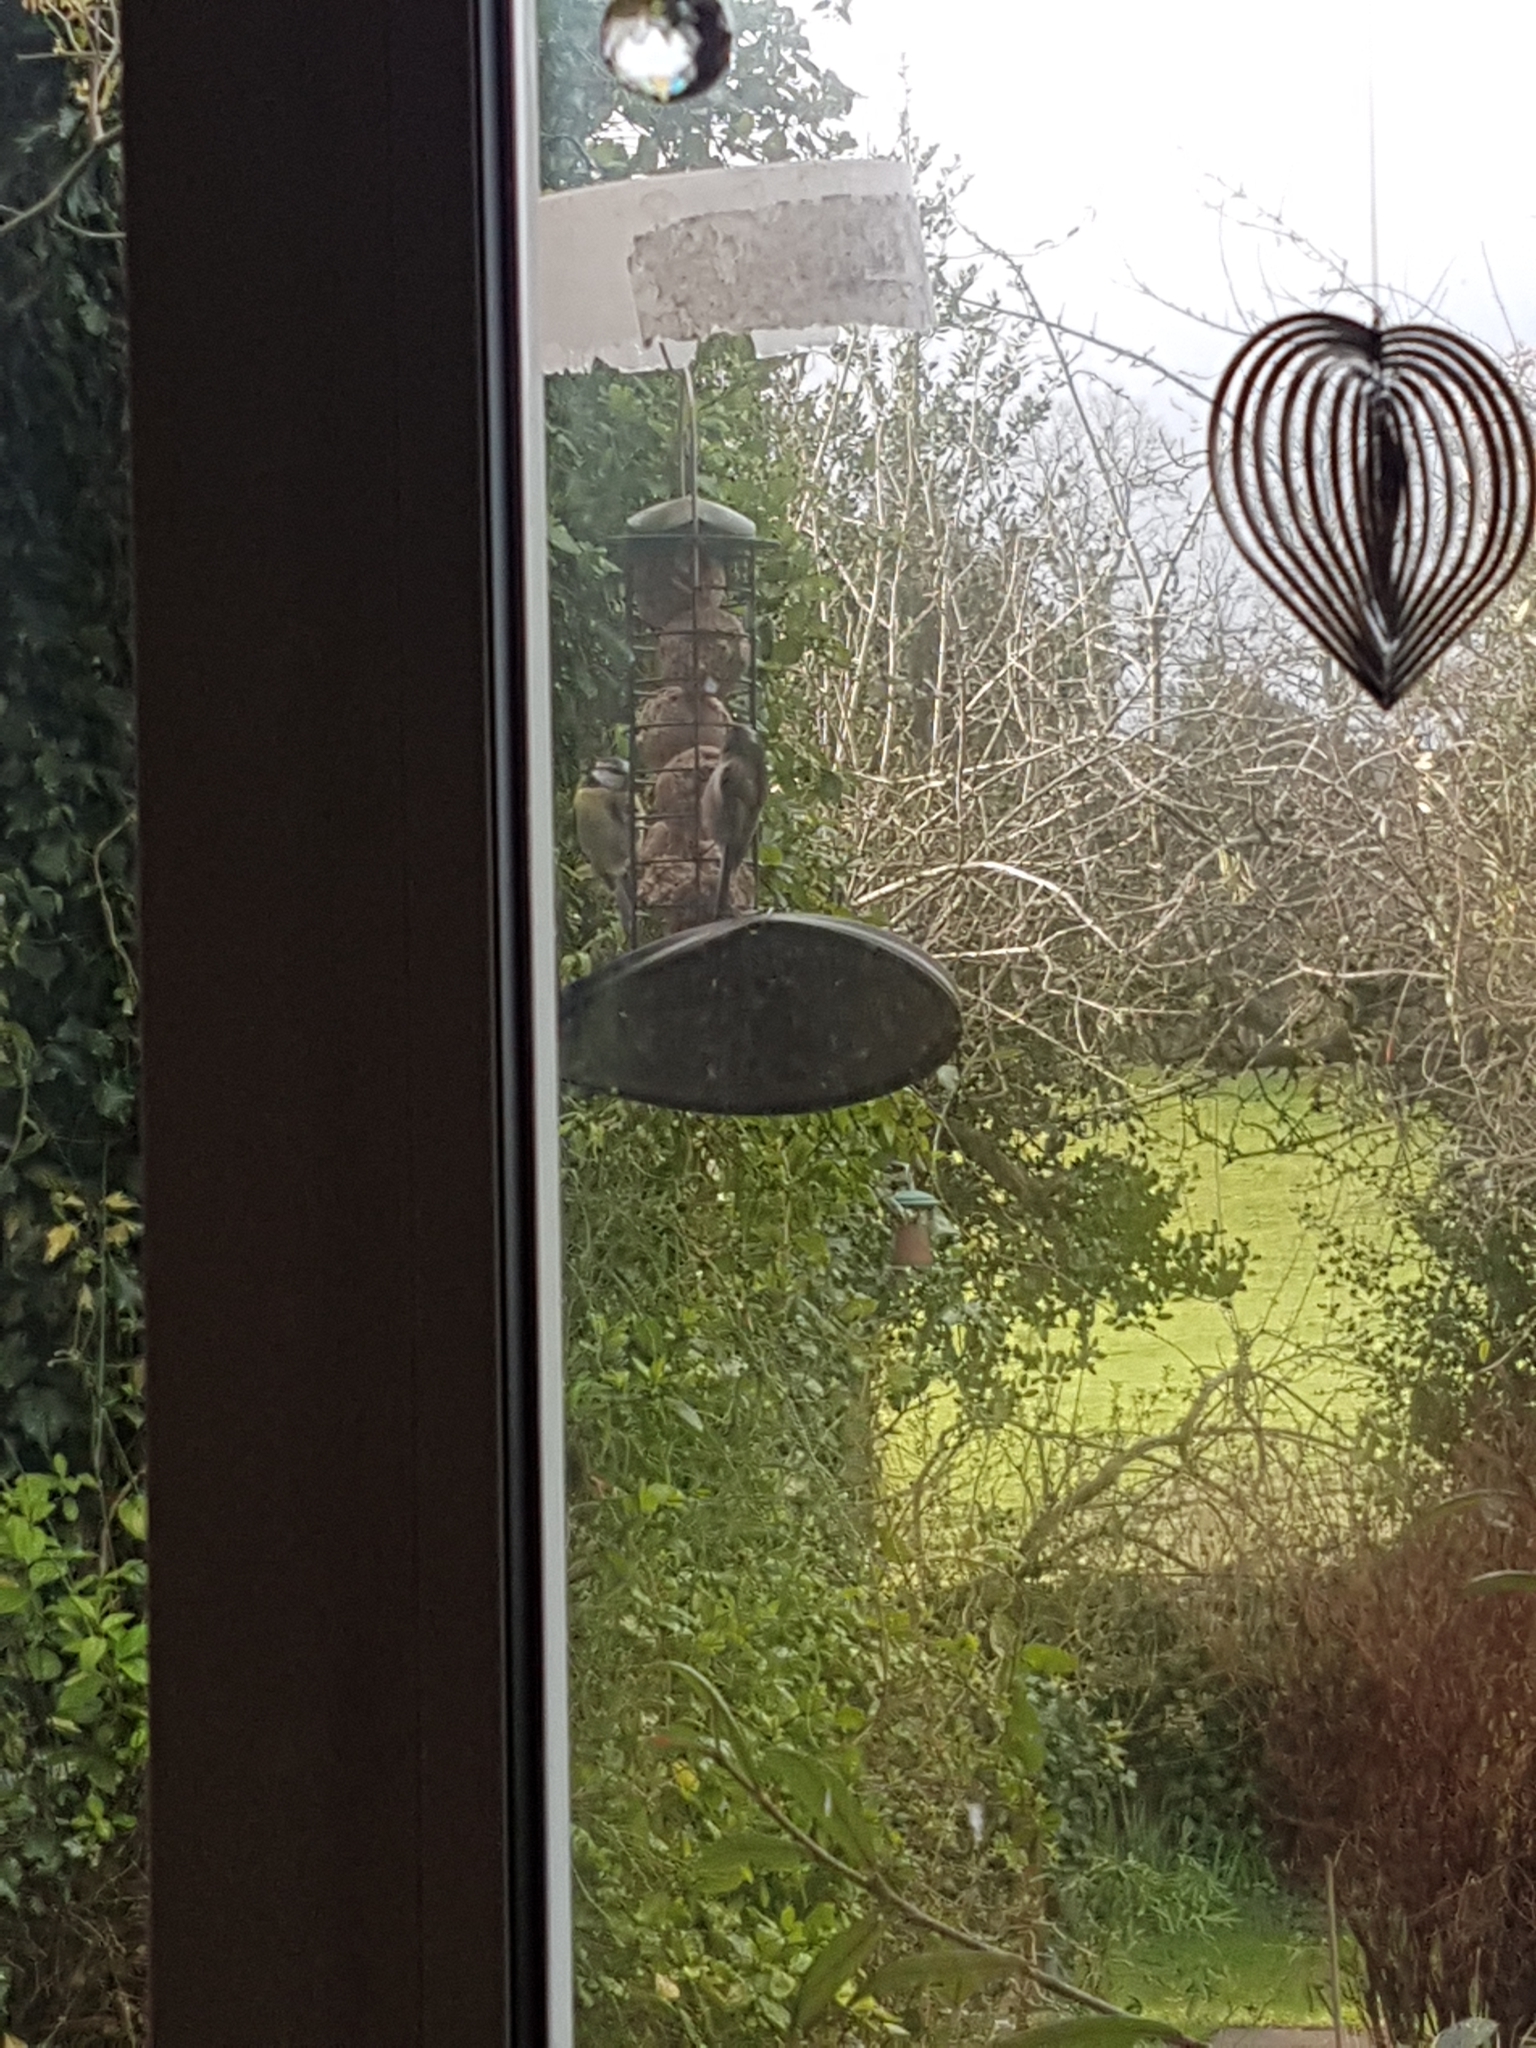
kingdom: Animalia
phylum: Chordata
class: Aves
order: Passeriformes
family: Paridae
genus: Cyanistes
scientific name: Cyanistes caeruleus
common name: Eurasian blue tit
